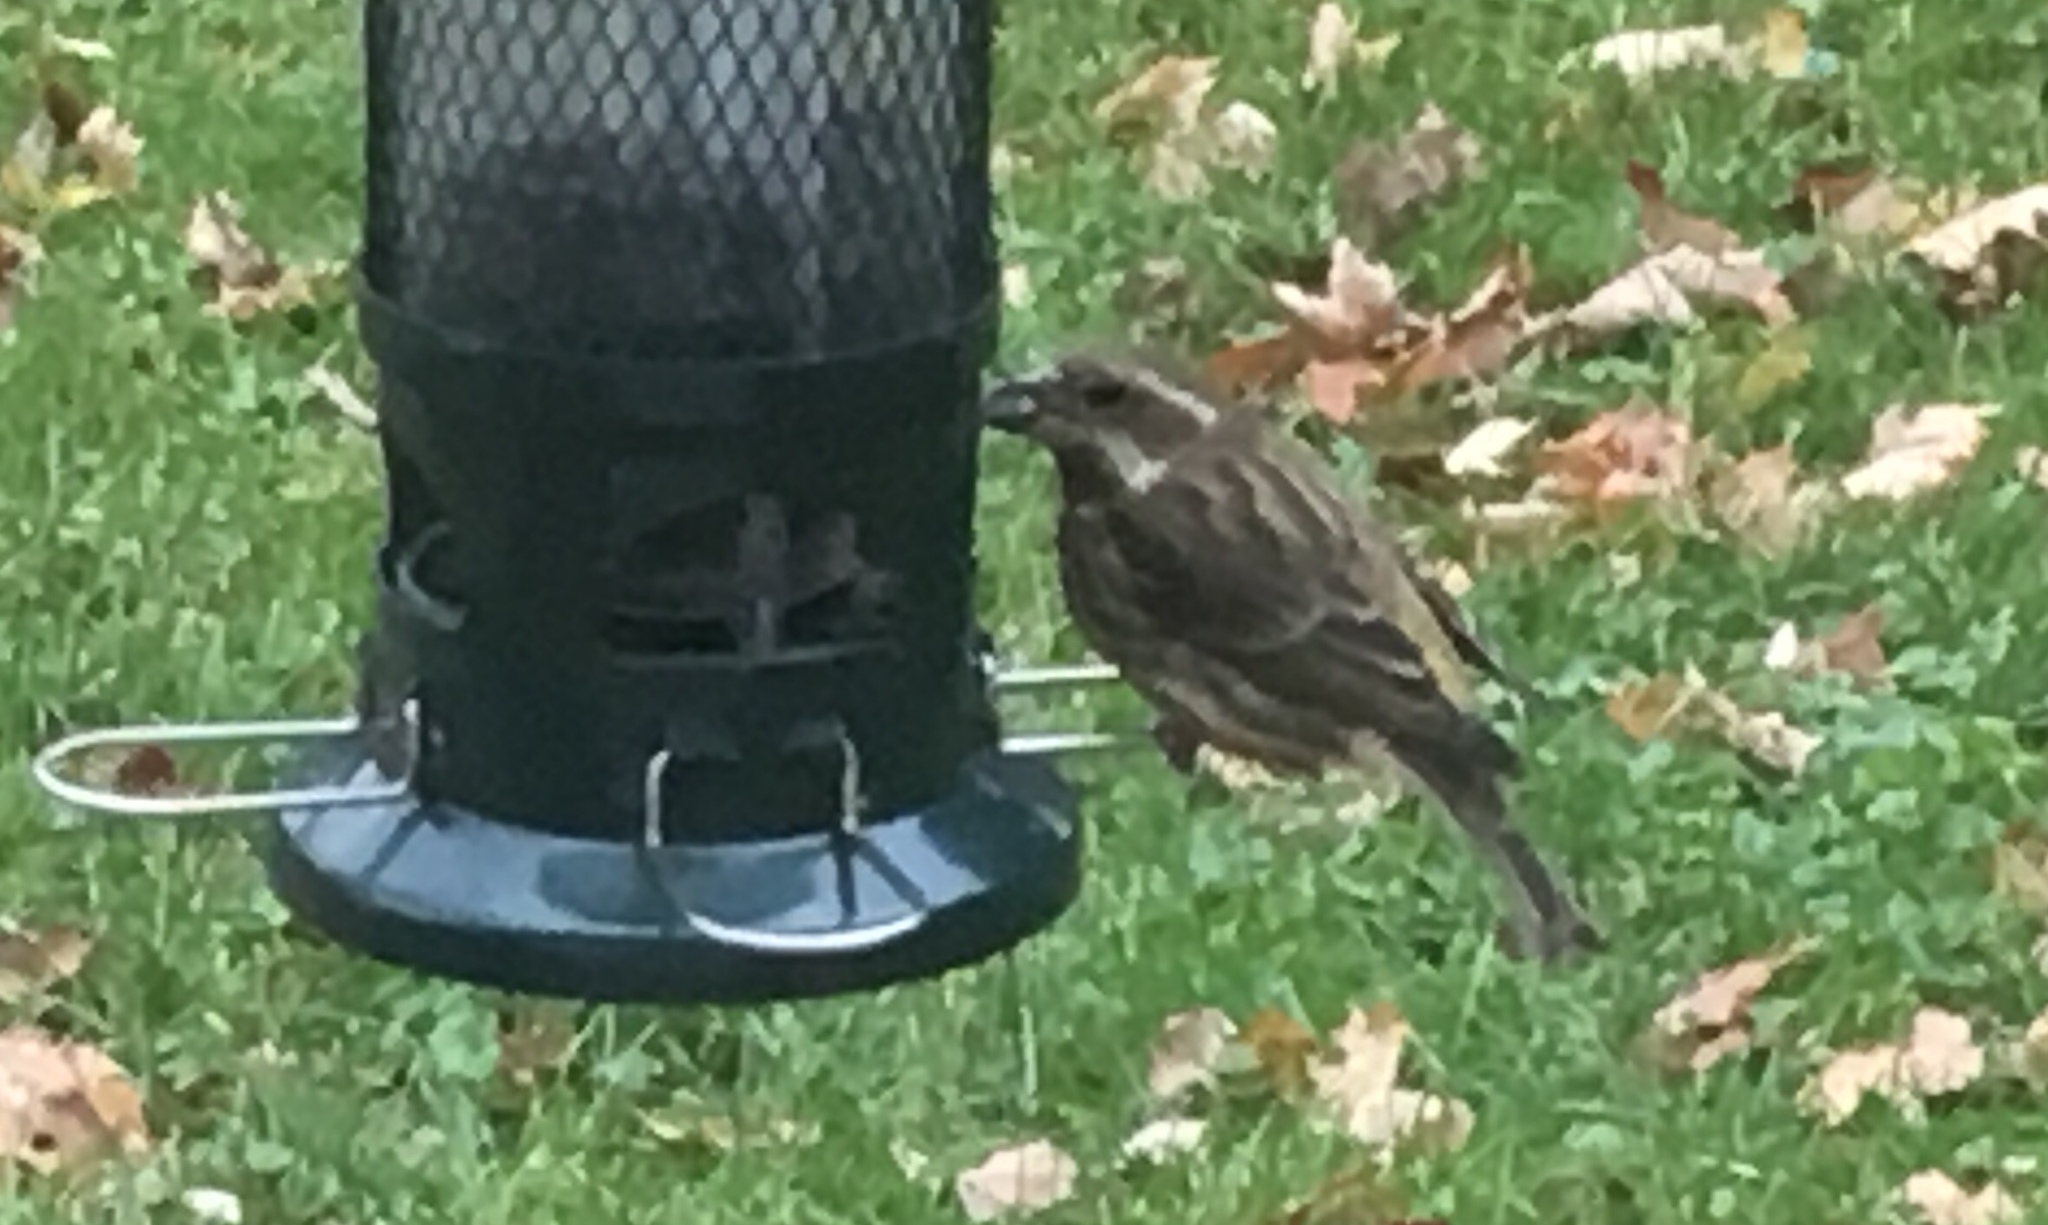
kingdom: Animalia
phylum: Chordata
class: Aves
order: Passeriformes
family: Fringillidae
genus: Haemorhous
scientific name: Haemorhous purpureus
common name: Purple finch
